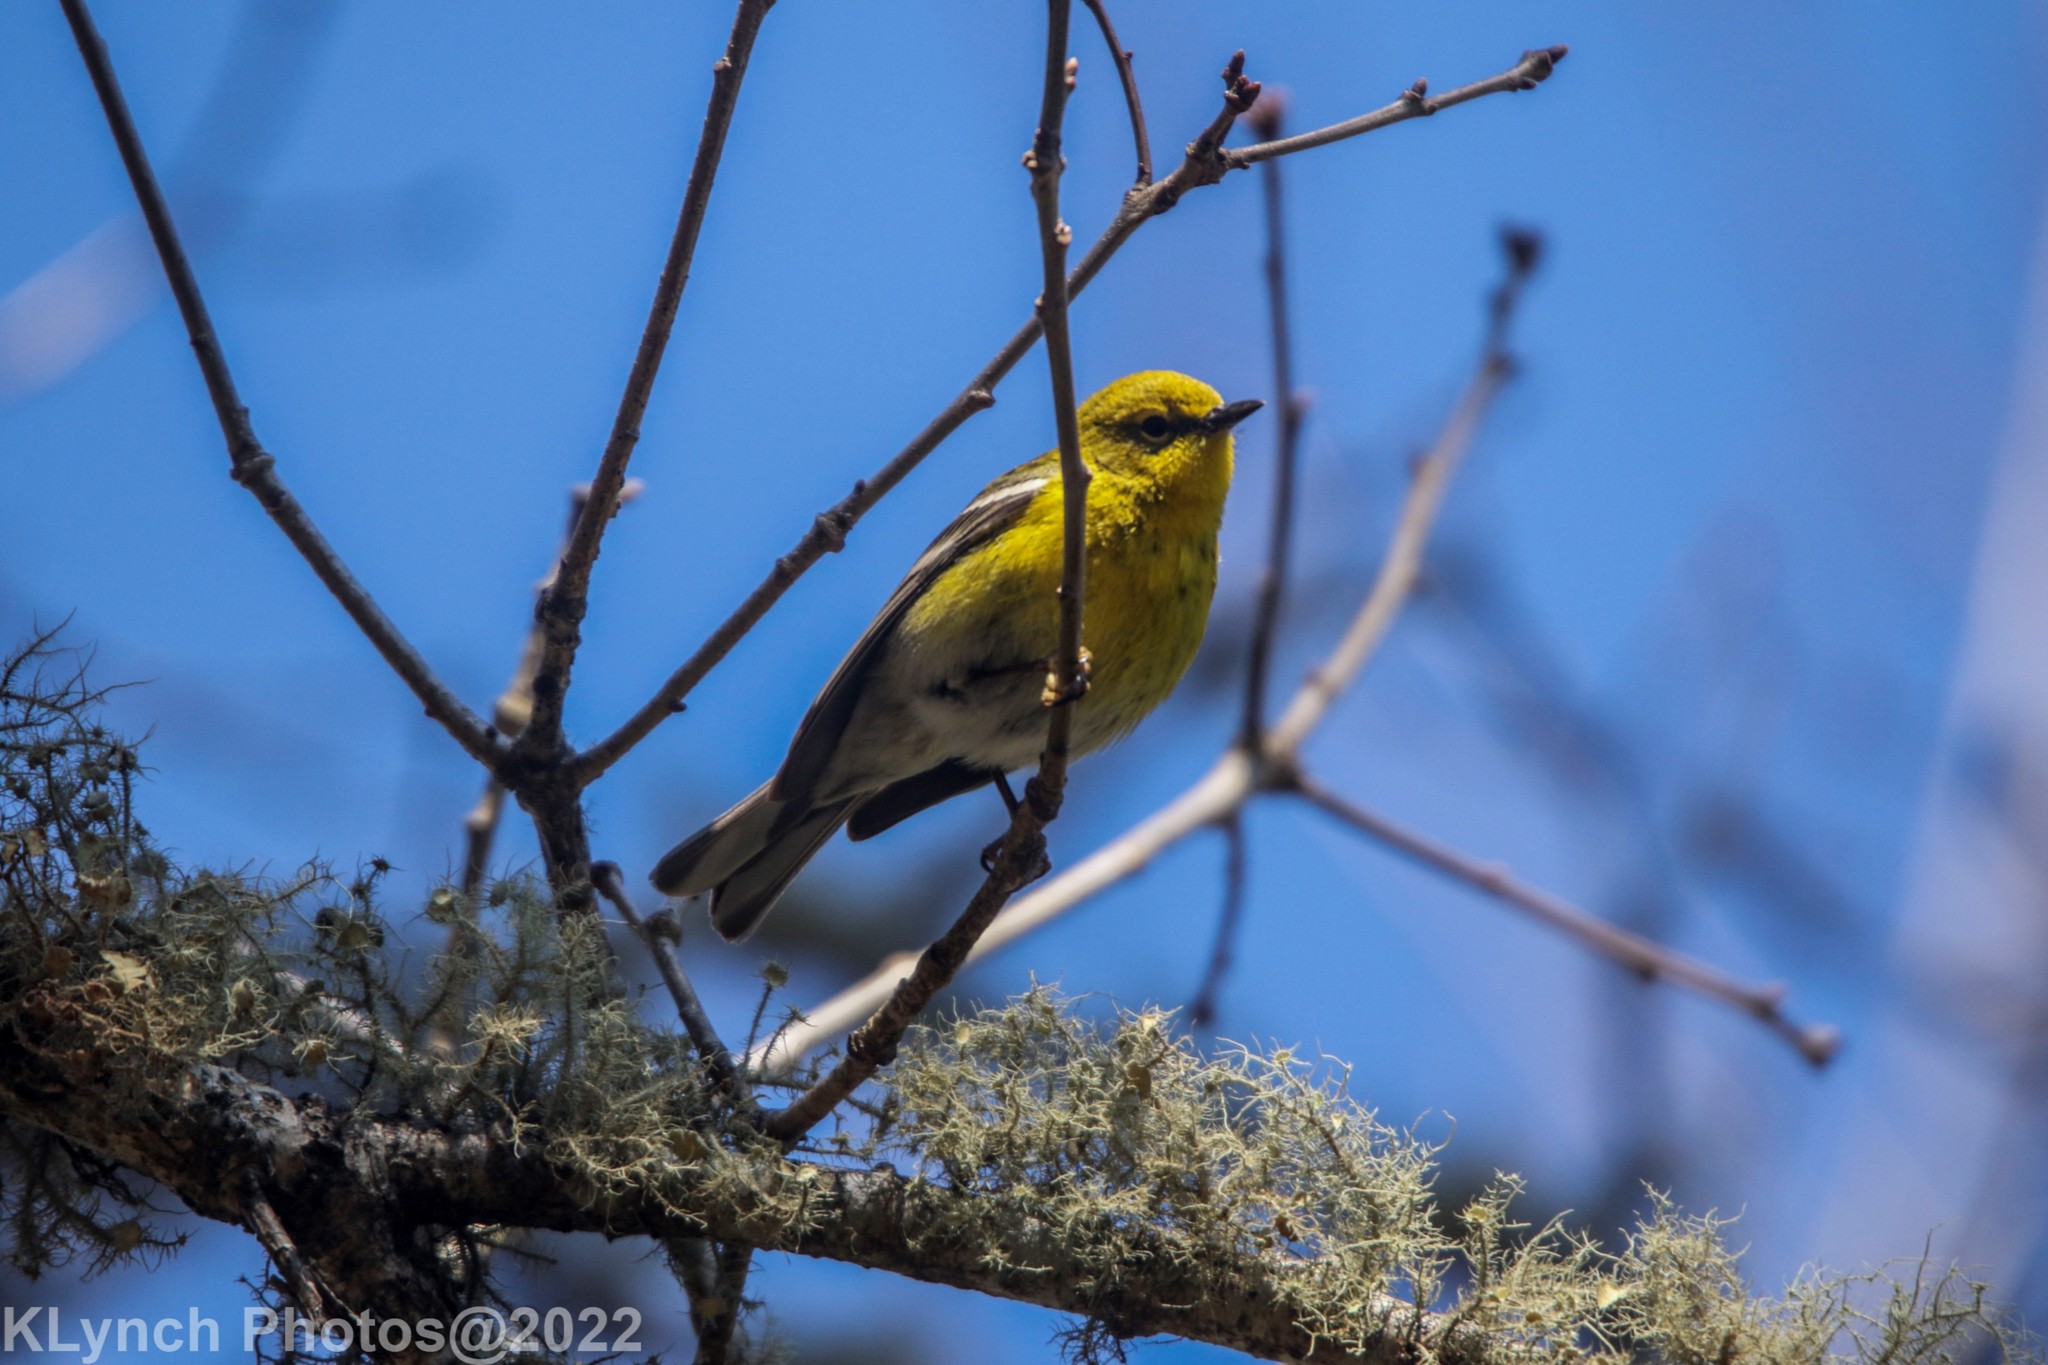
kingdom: Animalia
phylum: Chordata
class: Aves
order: Passeriformes
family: Parulidae
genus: Setophaga
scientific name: Setophaga pinus
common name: Pine warbler
